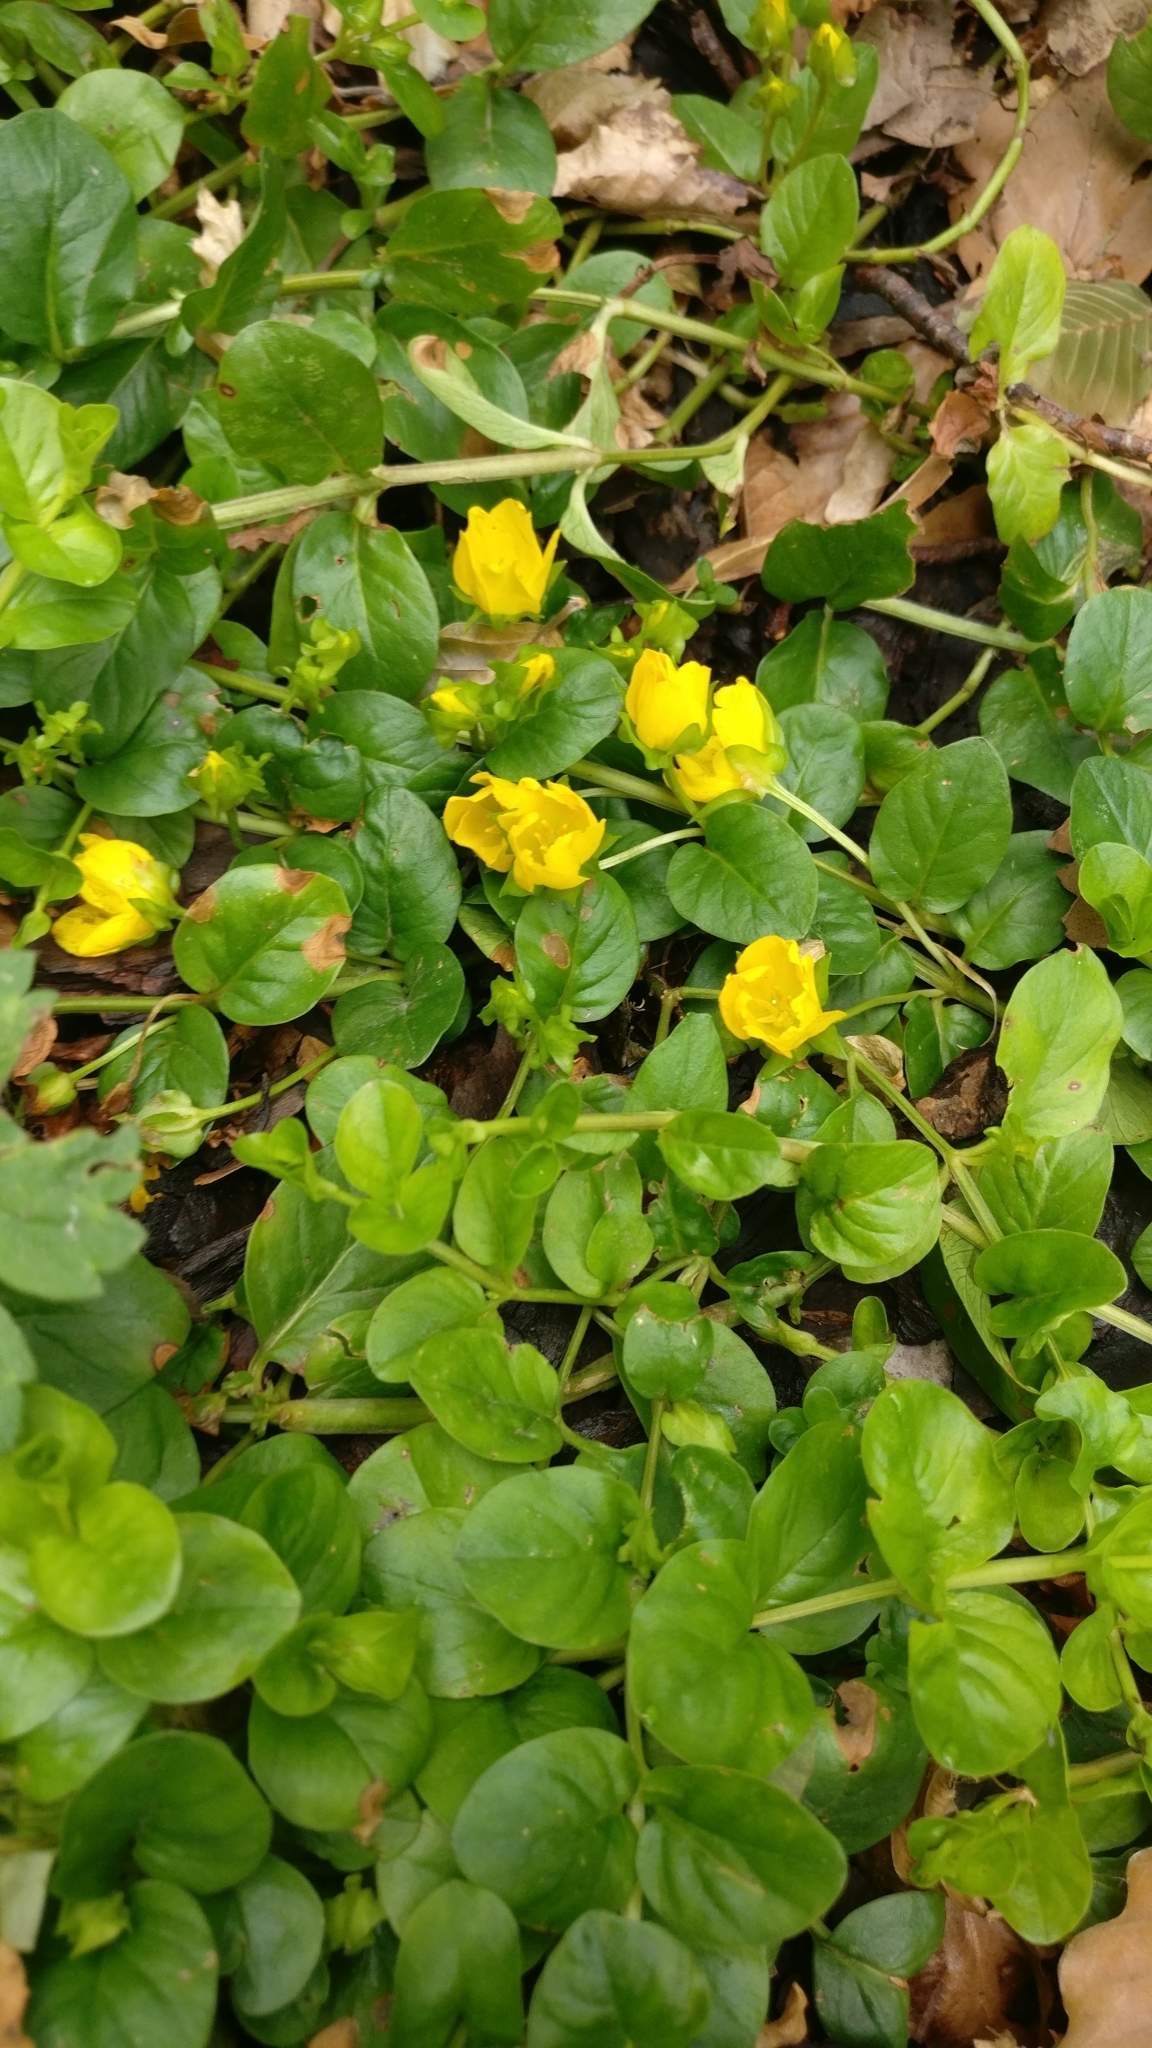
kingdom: Plantae
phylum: Tracheophyta
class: Magnoliopsida
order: Ericales
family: Primulaceae
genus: Lysimachia
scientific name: Lysimachia nummularia
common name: Moneywort
